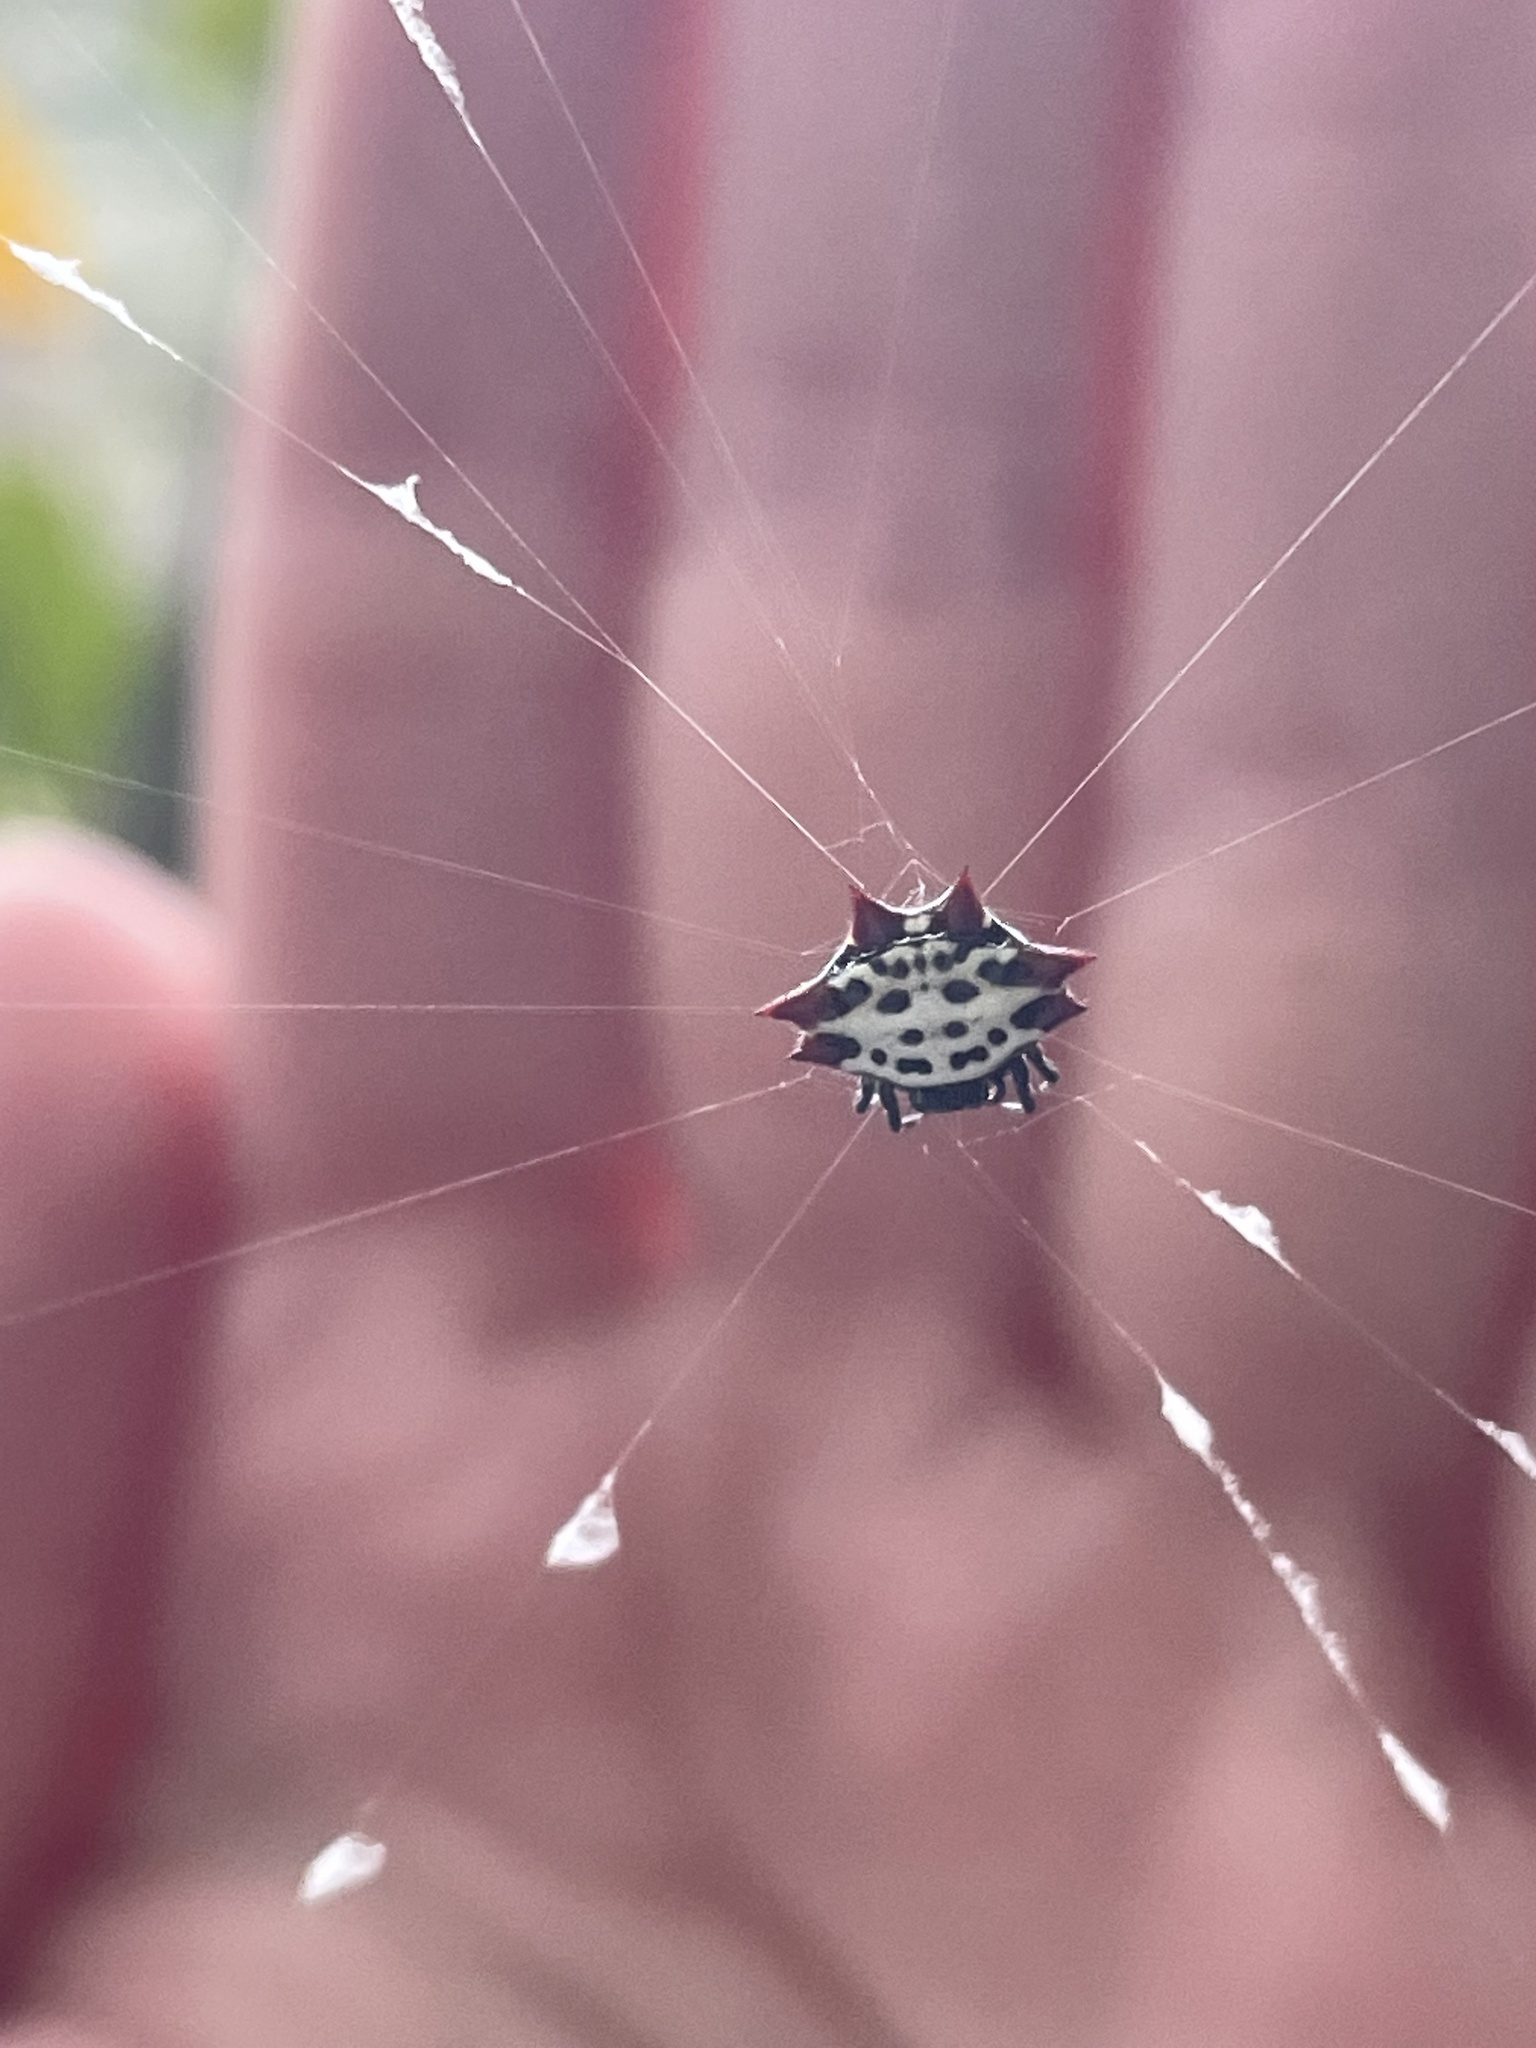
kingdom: Animalia
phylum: Arthropoda
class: Arachnida
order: Araneae
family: Araneidae
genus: Gasteracantha
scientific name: Gasteracantha cancriformis
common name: Orb weavers
